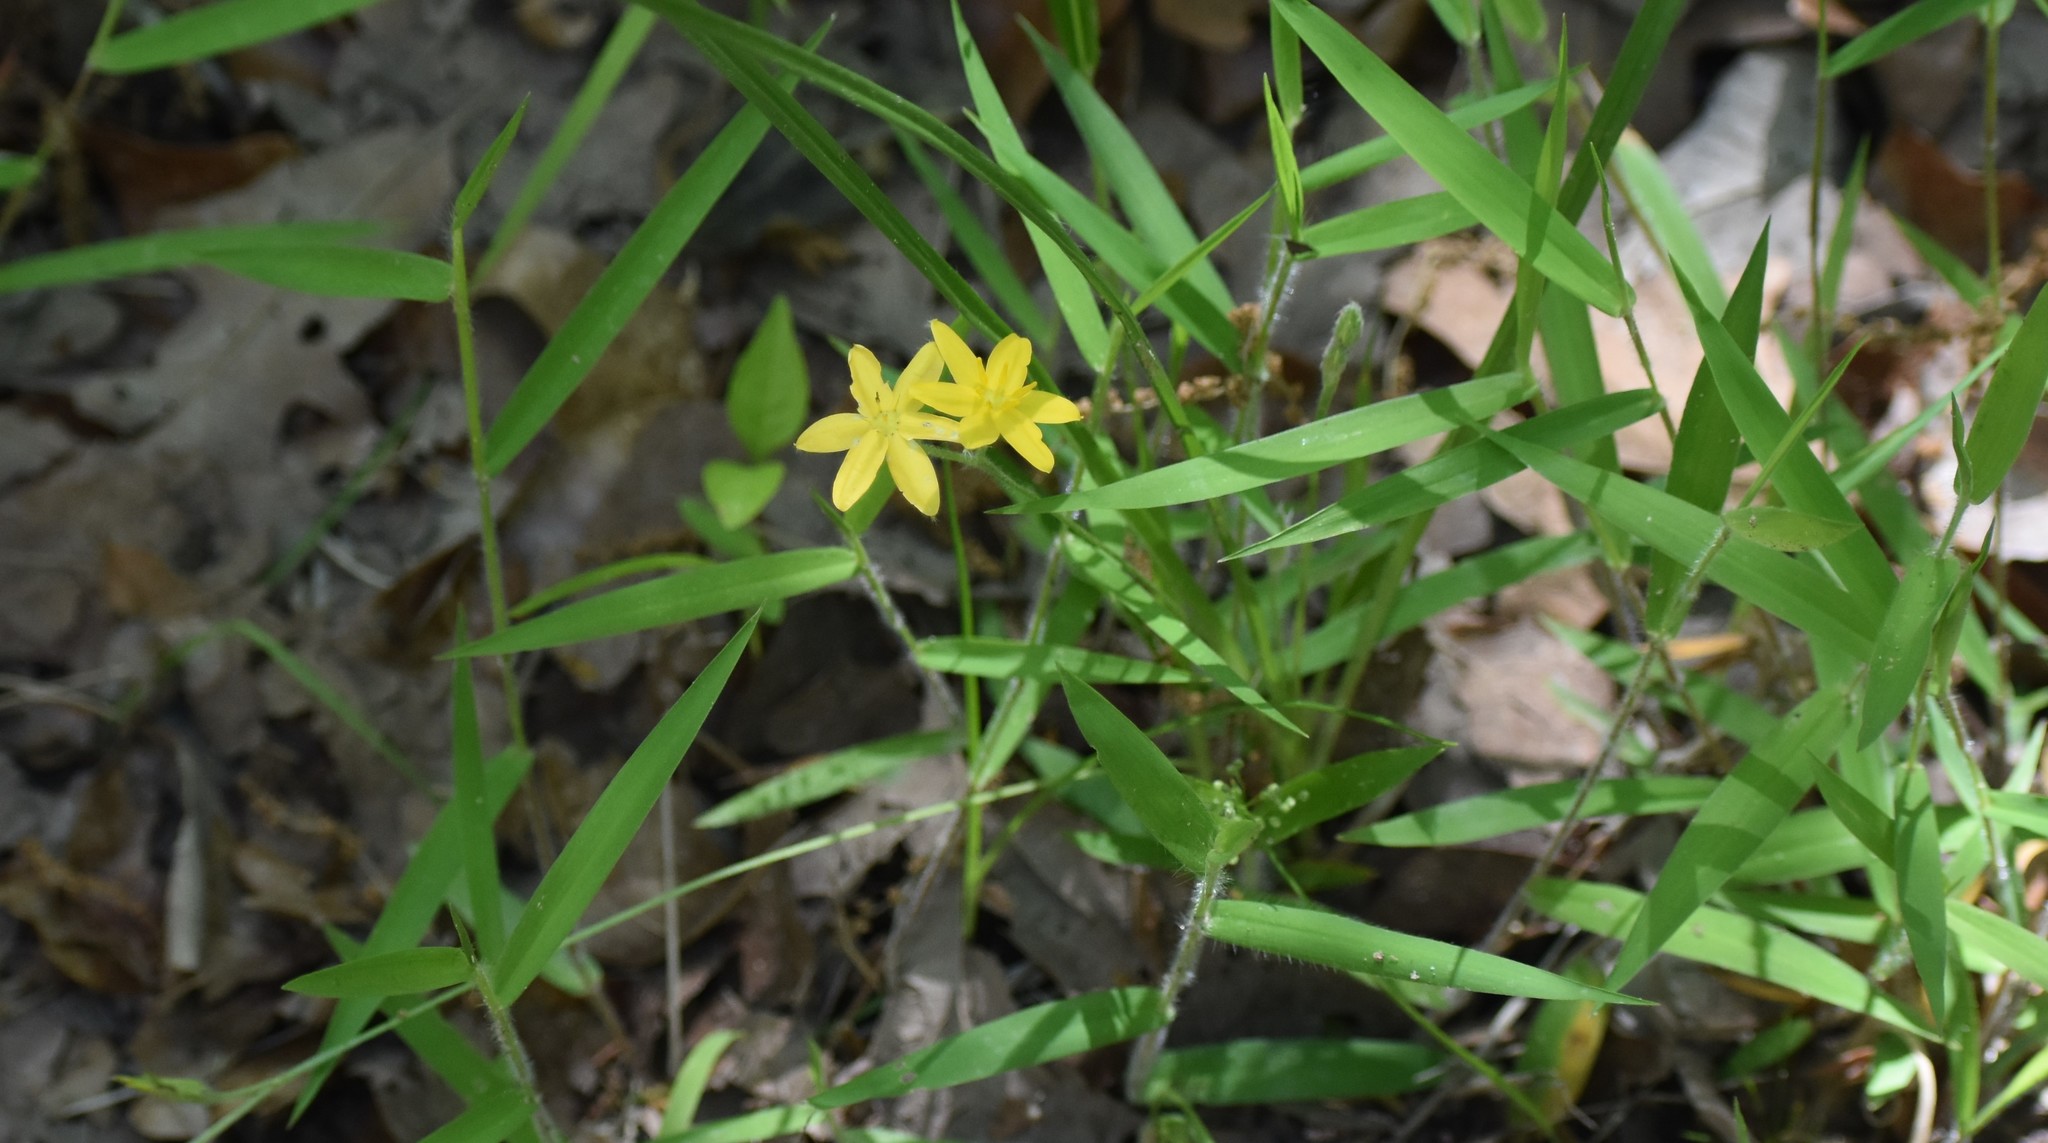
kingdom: Plantae
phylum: Tracheophyta
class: Liliopsida
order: Asparagales
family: Hypoxidaceae
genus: Hypoxis
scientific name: Hypoxis hirsuta
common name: Common goldstar
